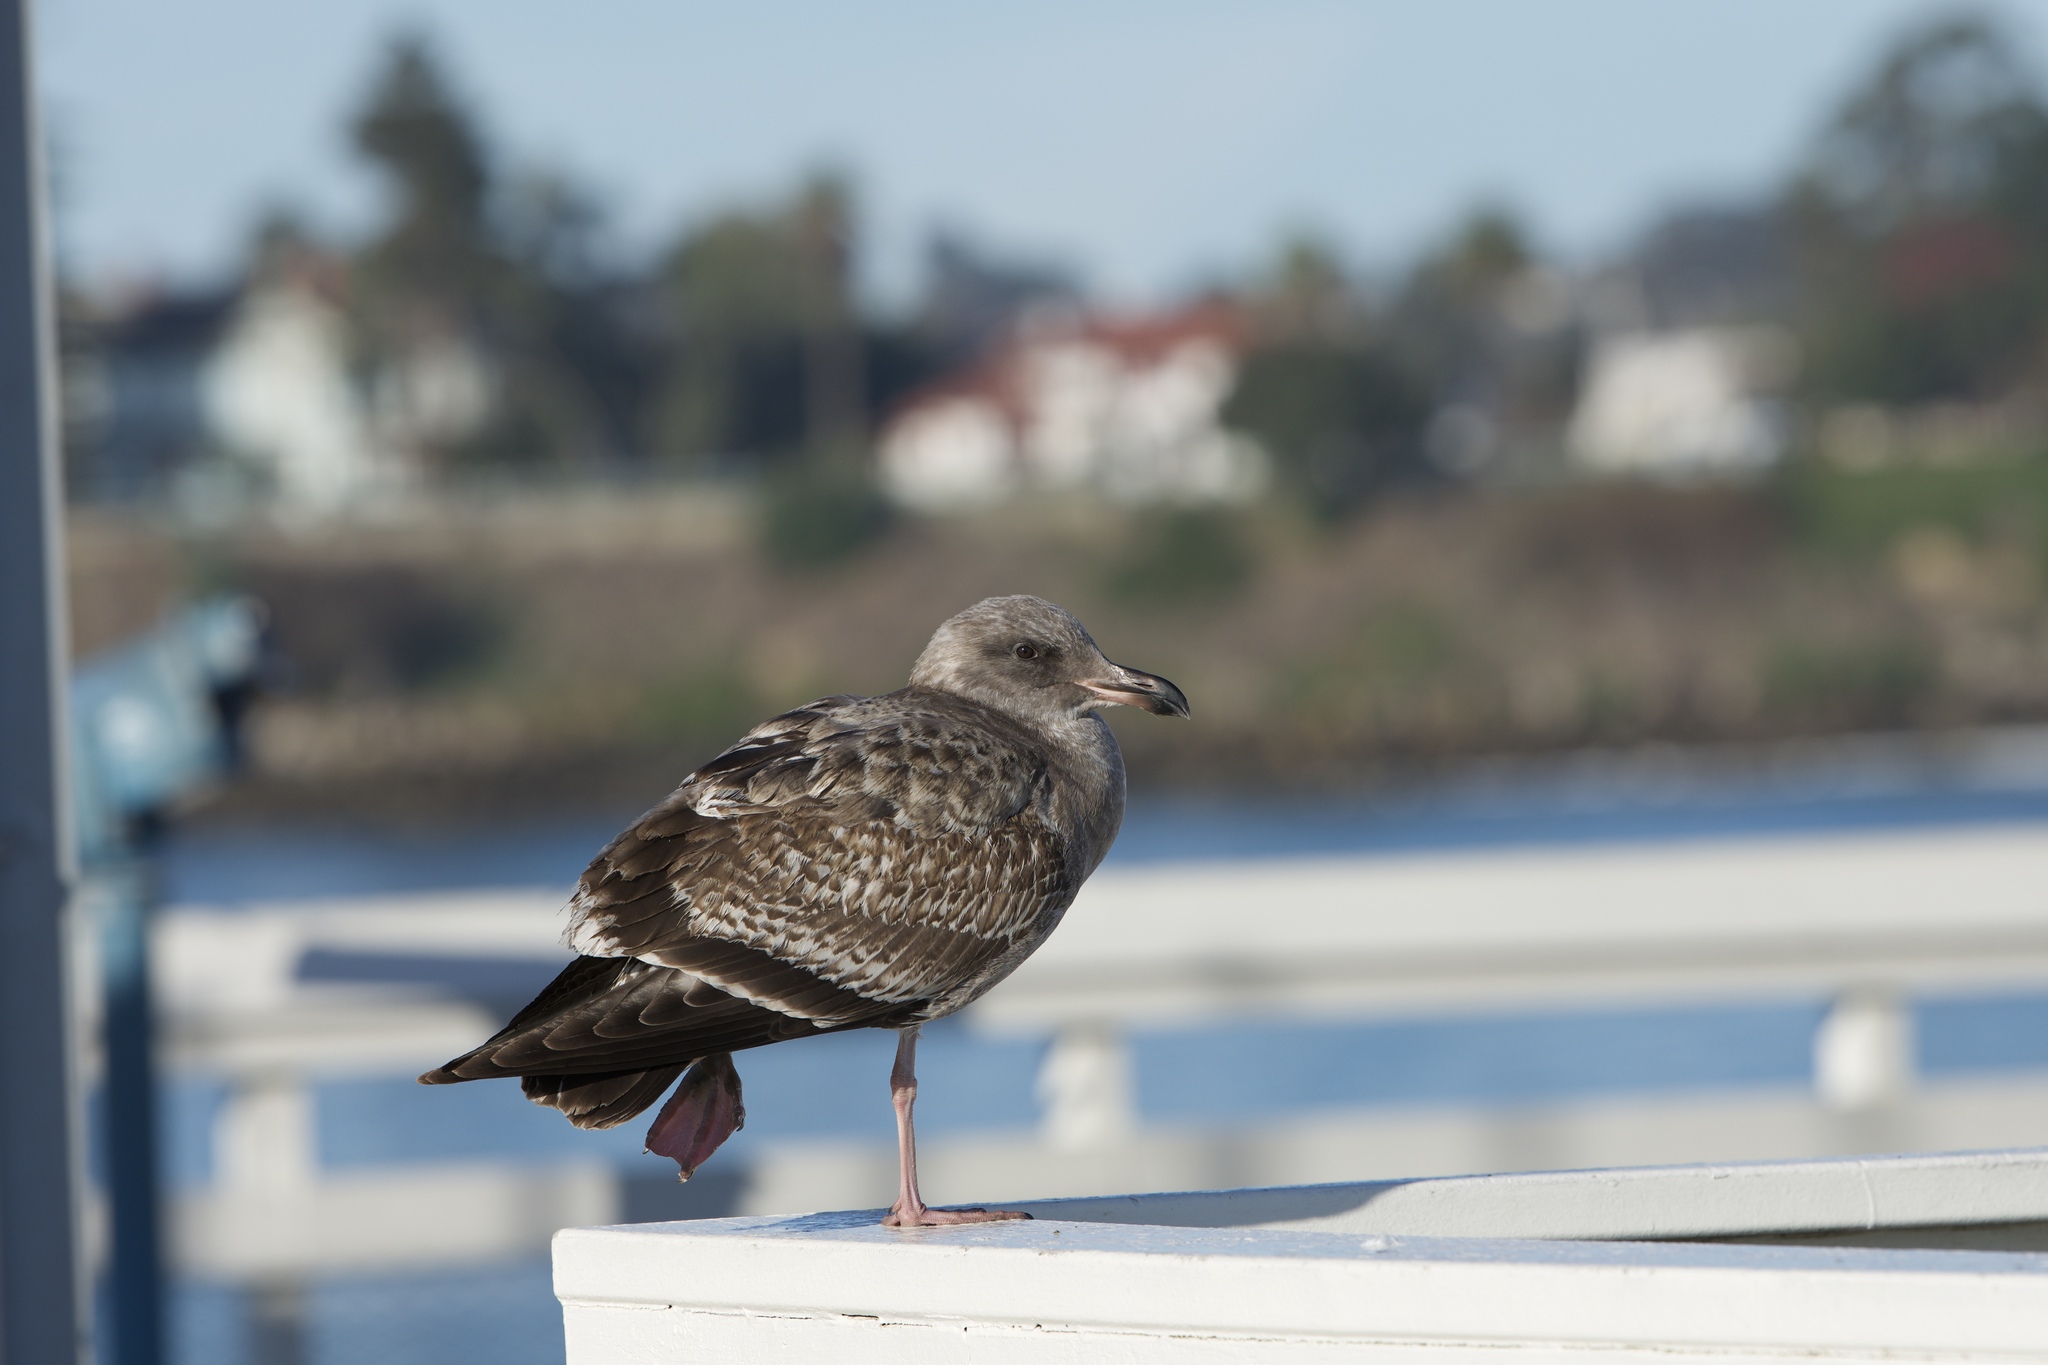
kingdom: Animalia
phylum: Chordata
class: Aves
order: Charadriiformes
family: Laridae
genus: Larus
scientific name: Larus occidentalis
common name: Western gull
